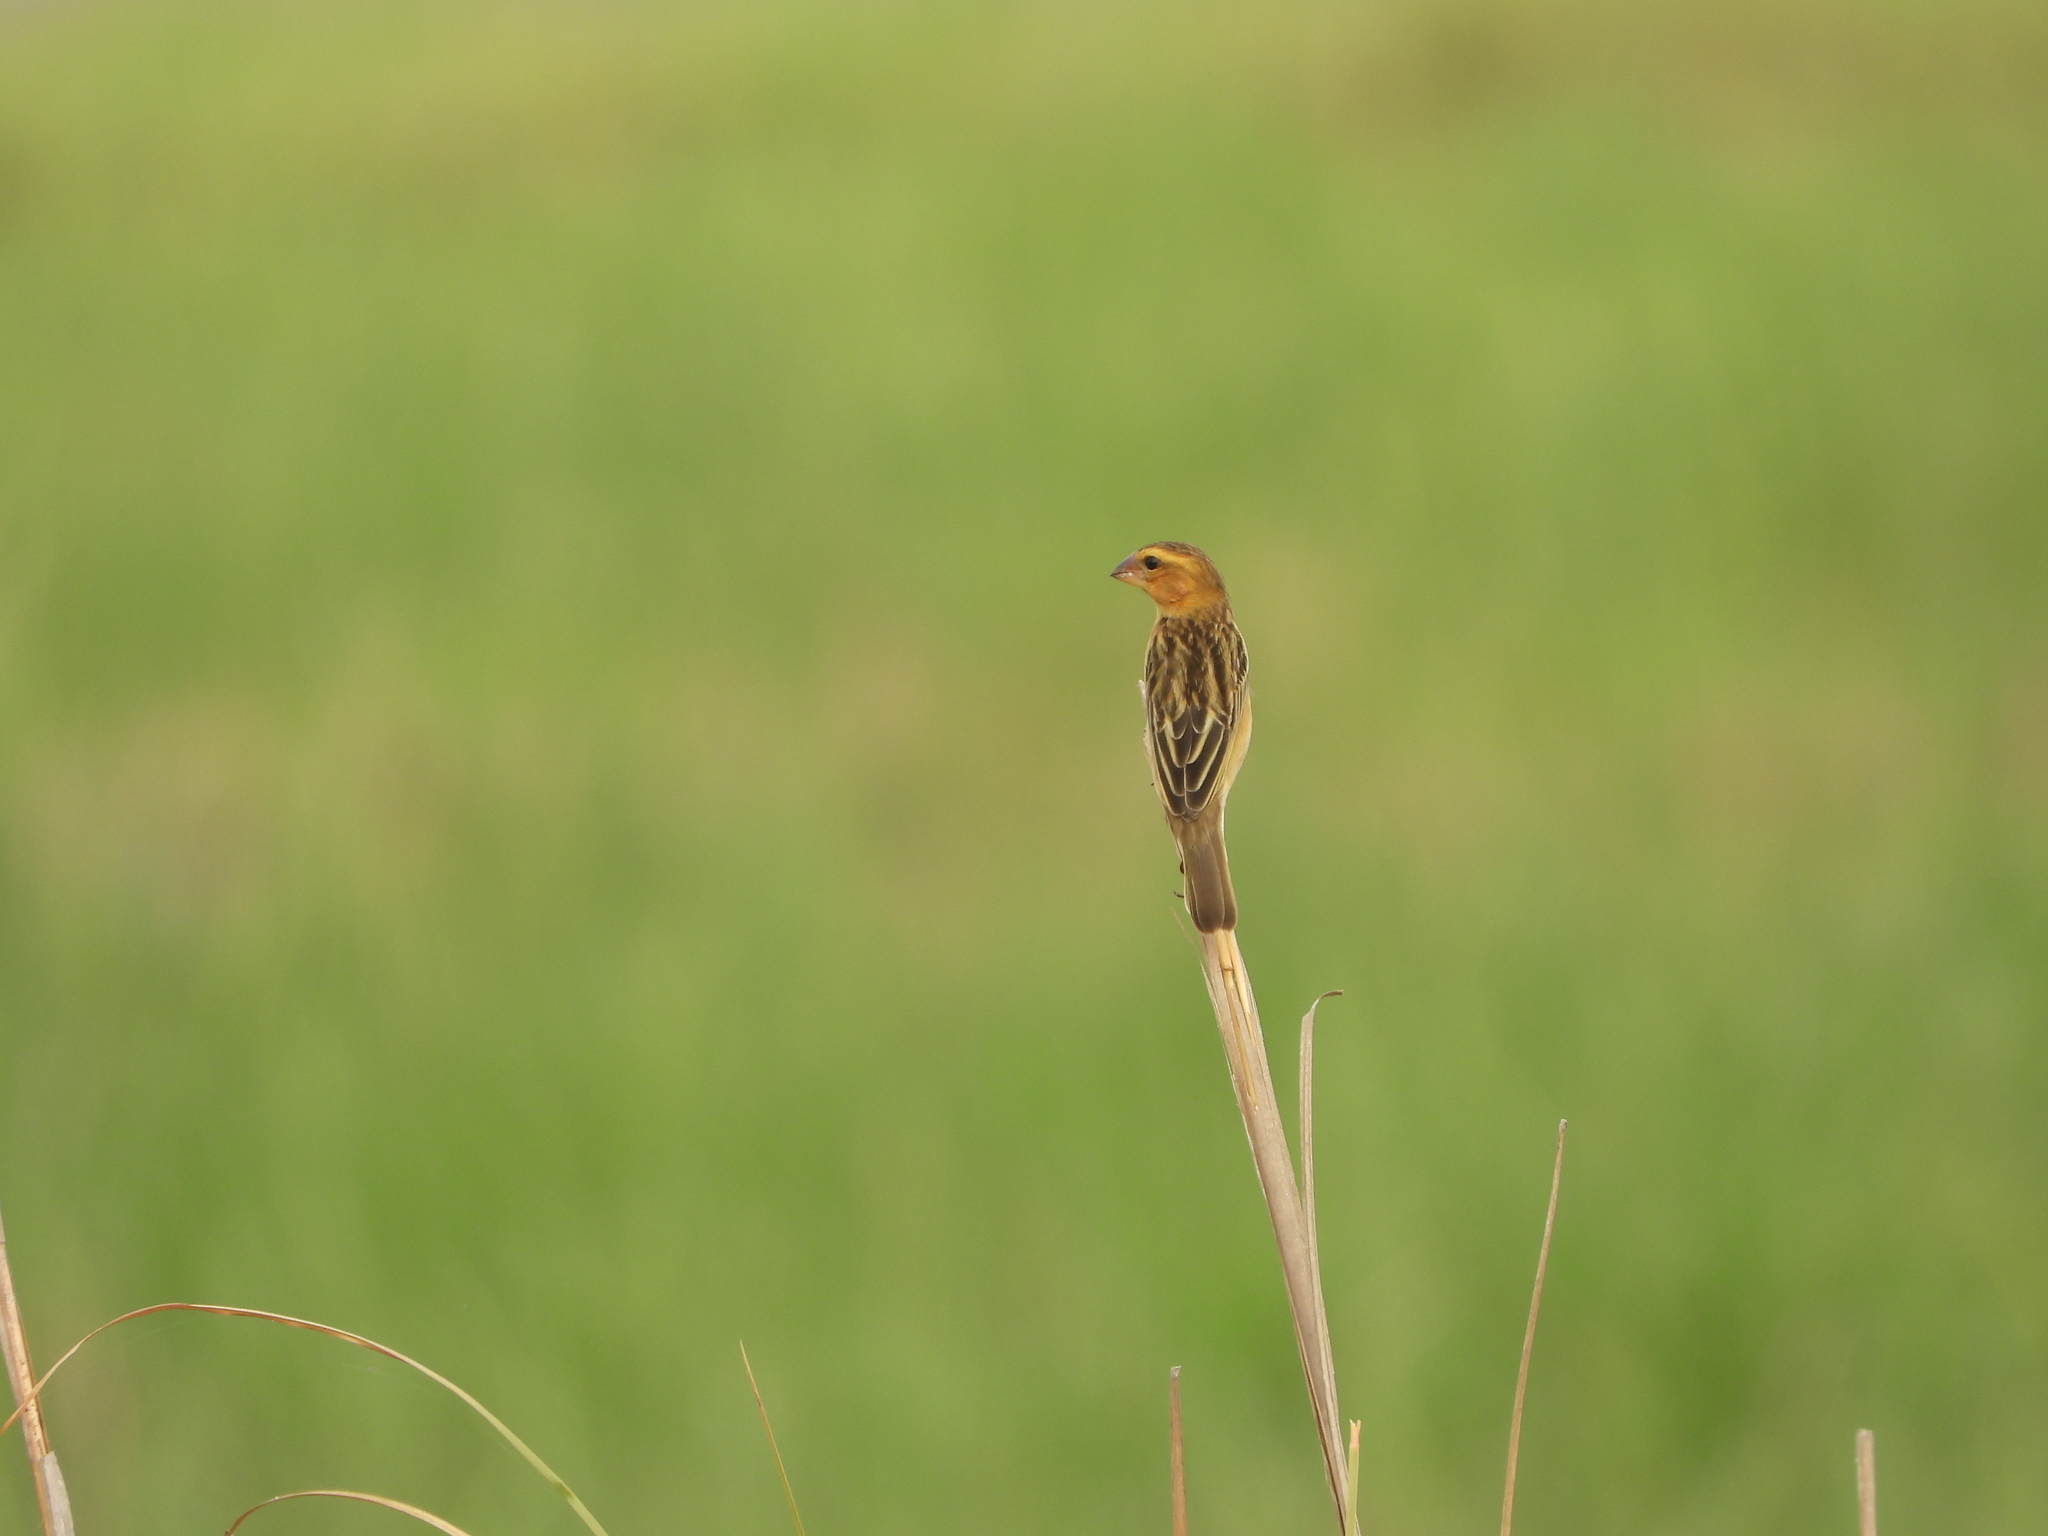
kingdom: Animalia
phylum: Chordata
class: Aves
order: Passeriformes
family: Ploceidae
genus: Ploceus
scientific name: Ploceus hypoxanthus
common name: Asian golden weaver
